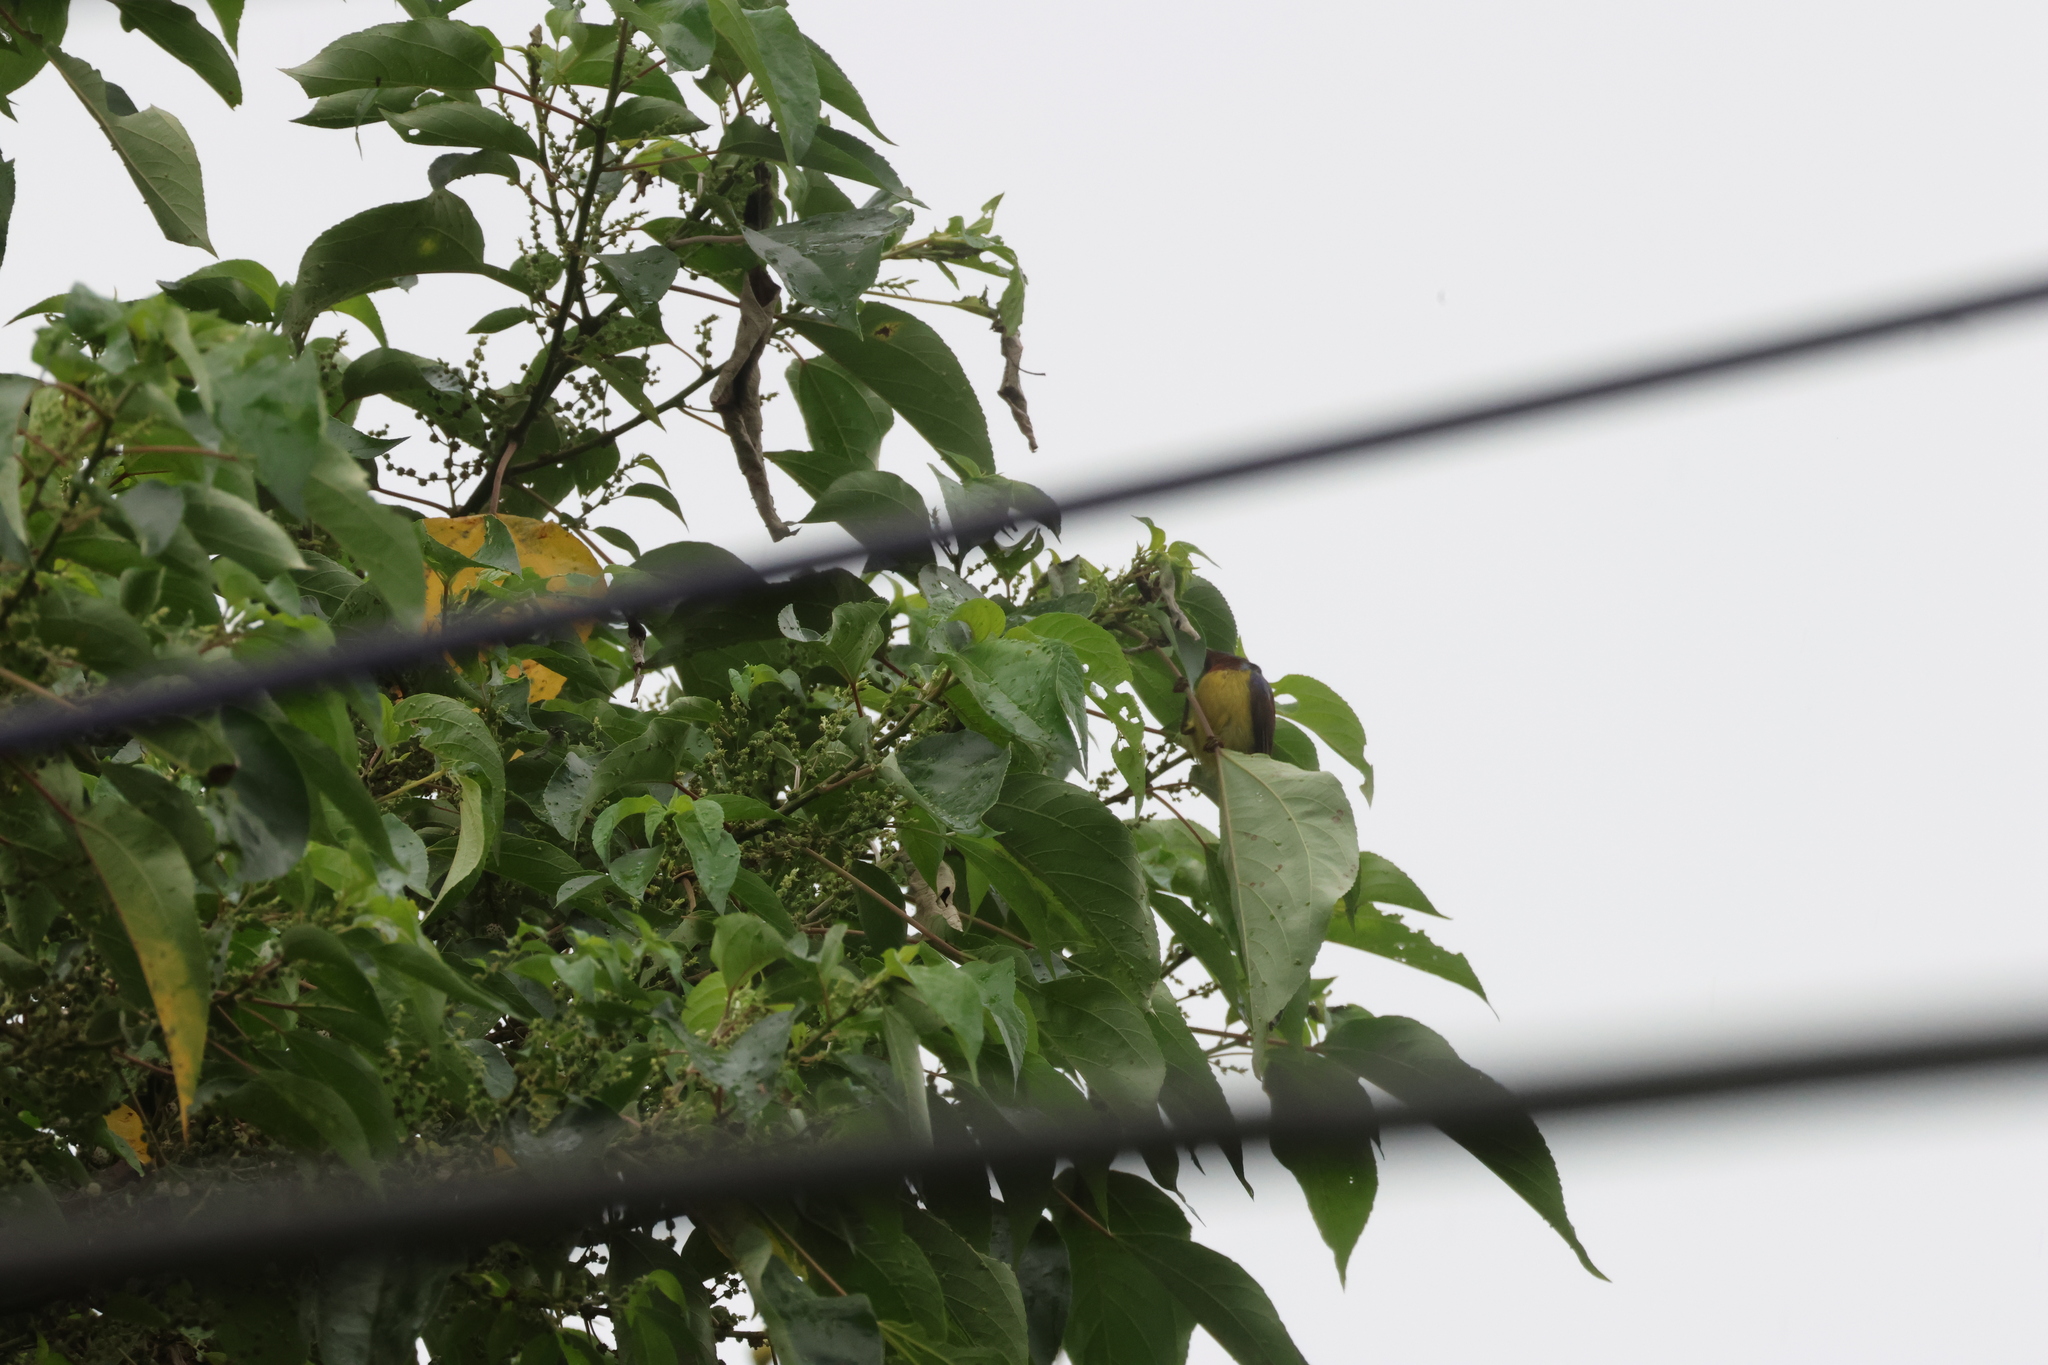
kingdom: Animalia
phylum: Chordata
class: Aves
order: Passeriformes
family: Nectariniidae
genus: Anthreptes
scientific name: Anthreptes malacensis
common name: Brown-throated sunbird
